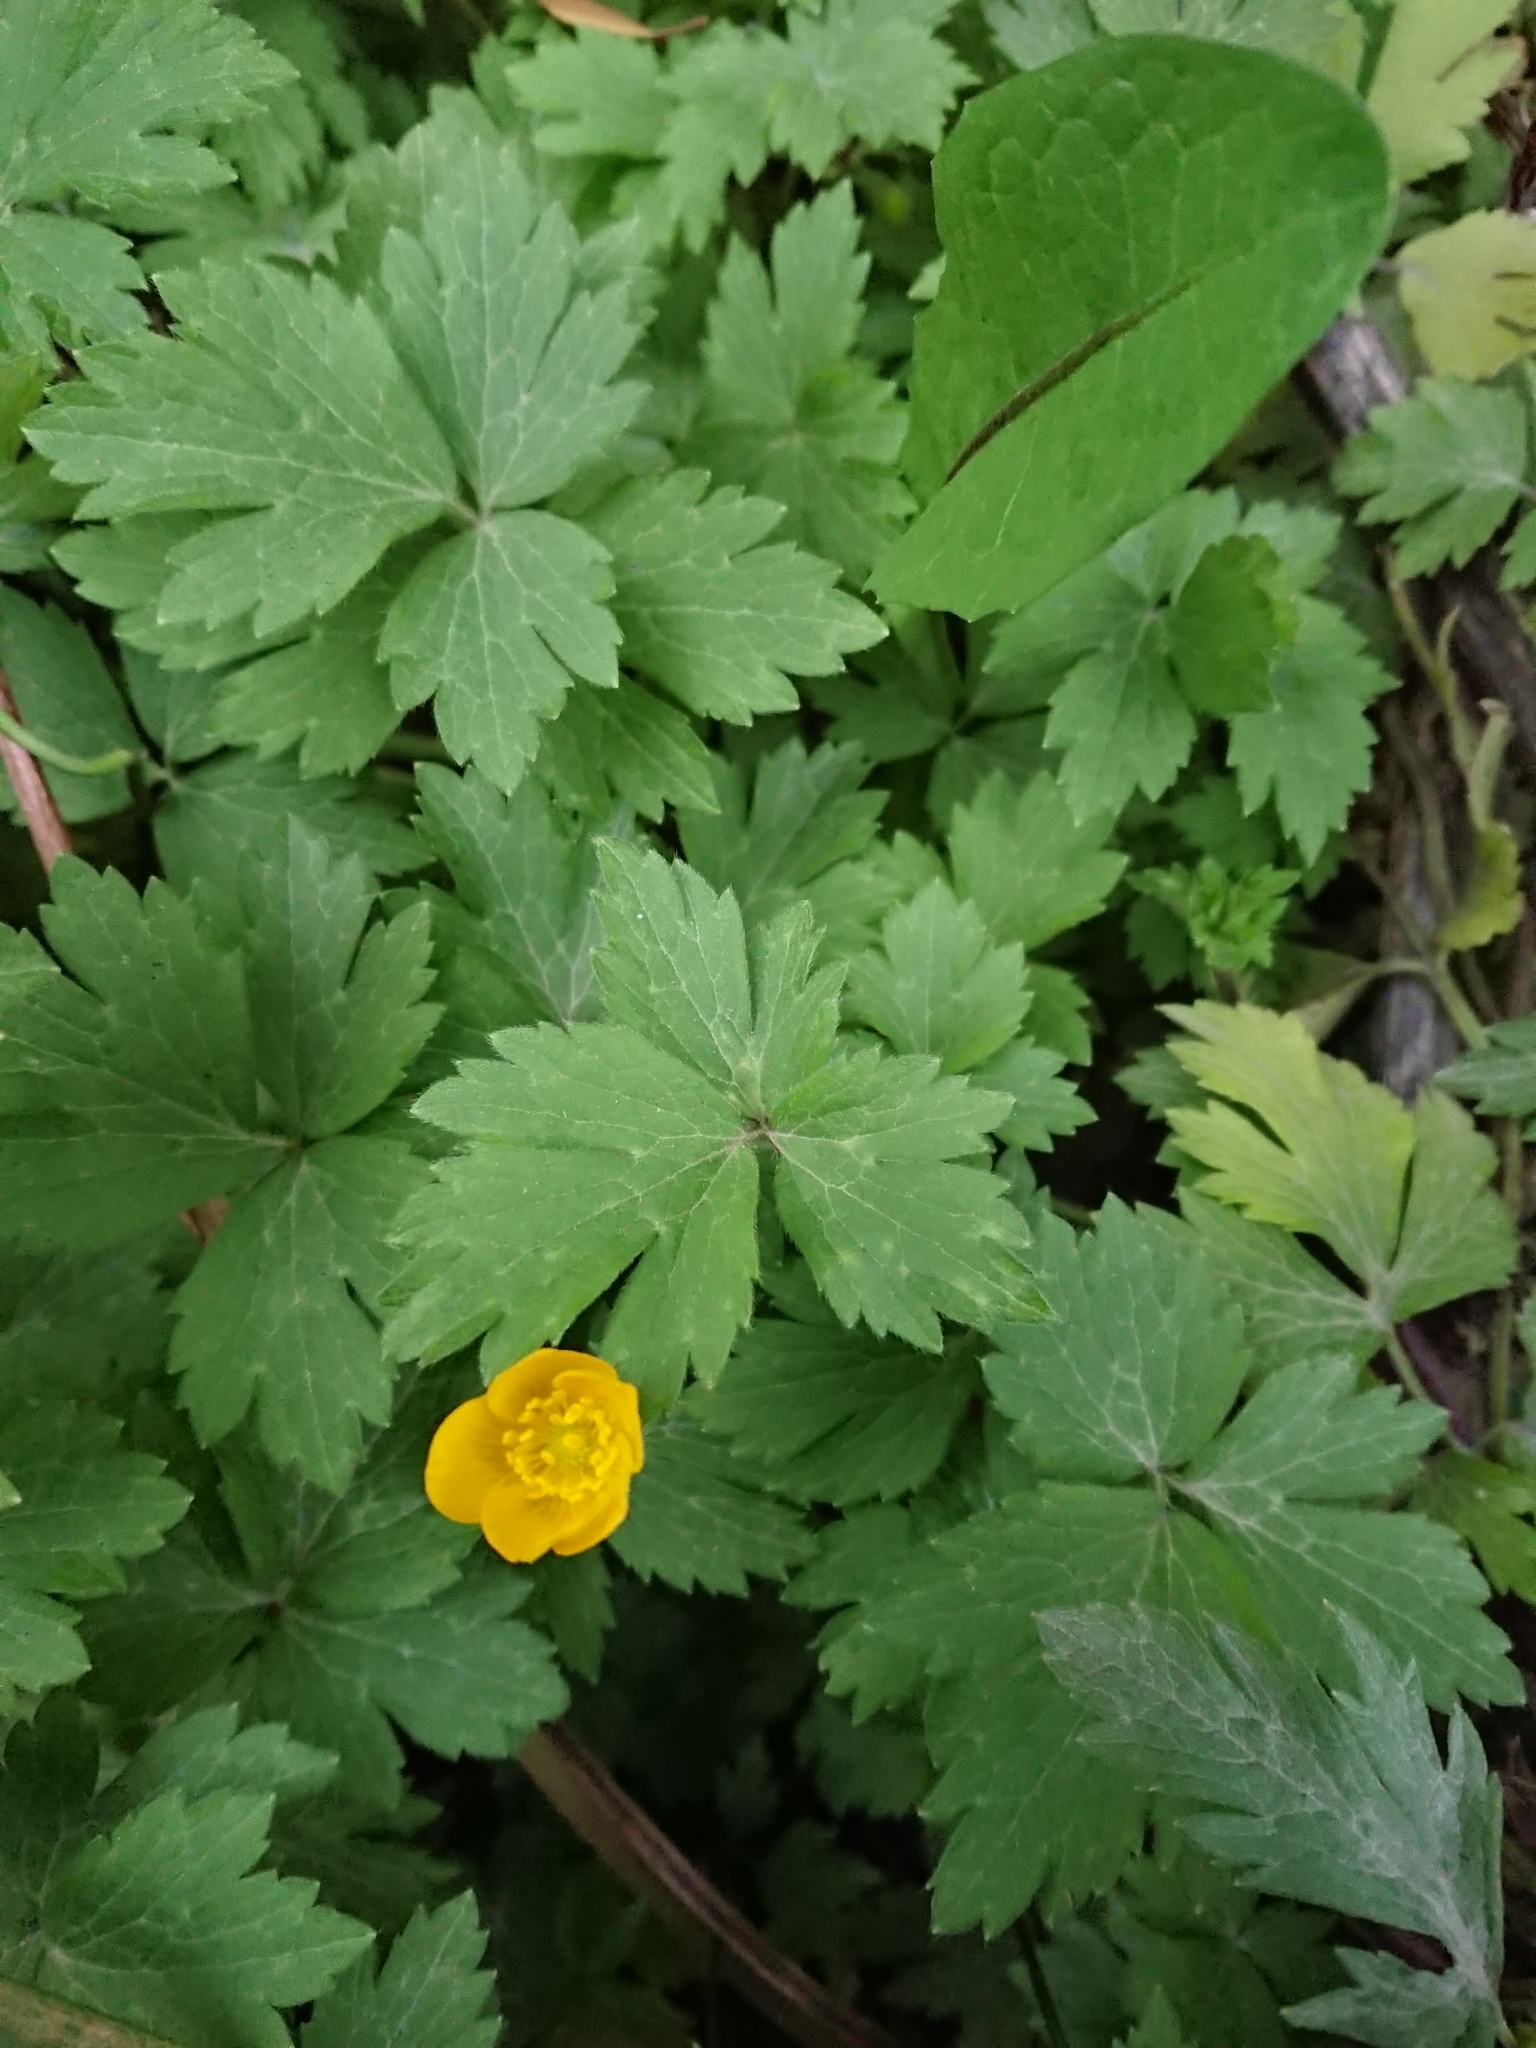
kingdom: Plantae
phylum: Tracheophyta
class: Magnoliopsida
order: Ranunculales
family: Ranunculaceae
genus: Ranunculus
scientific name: Ranunculus repens
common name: Creeping buttercup
